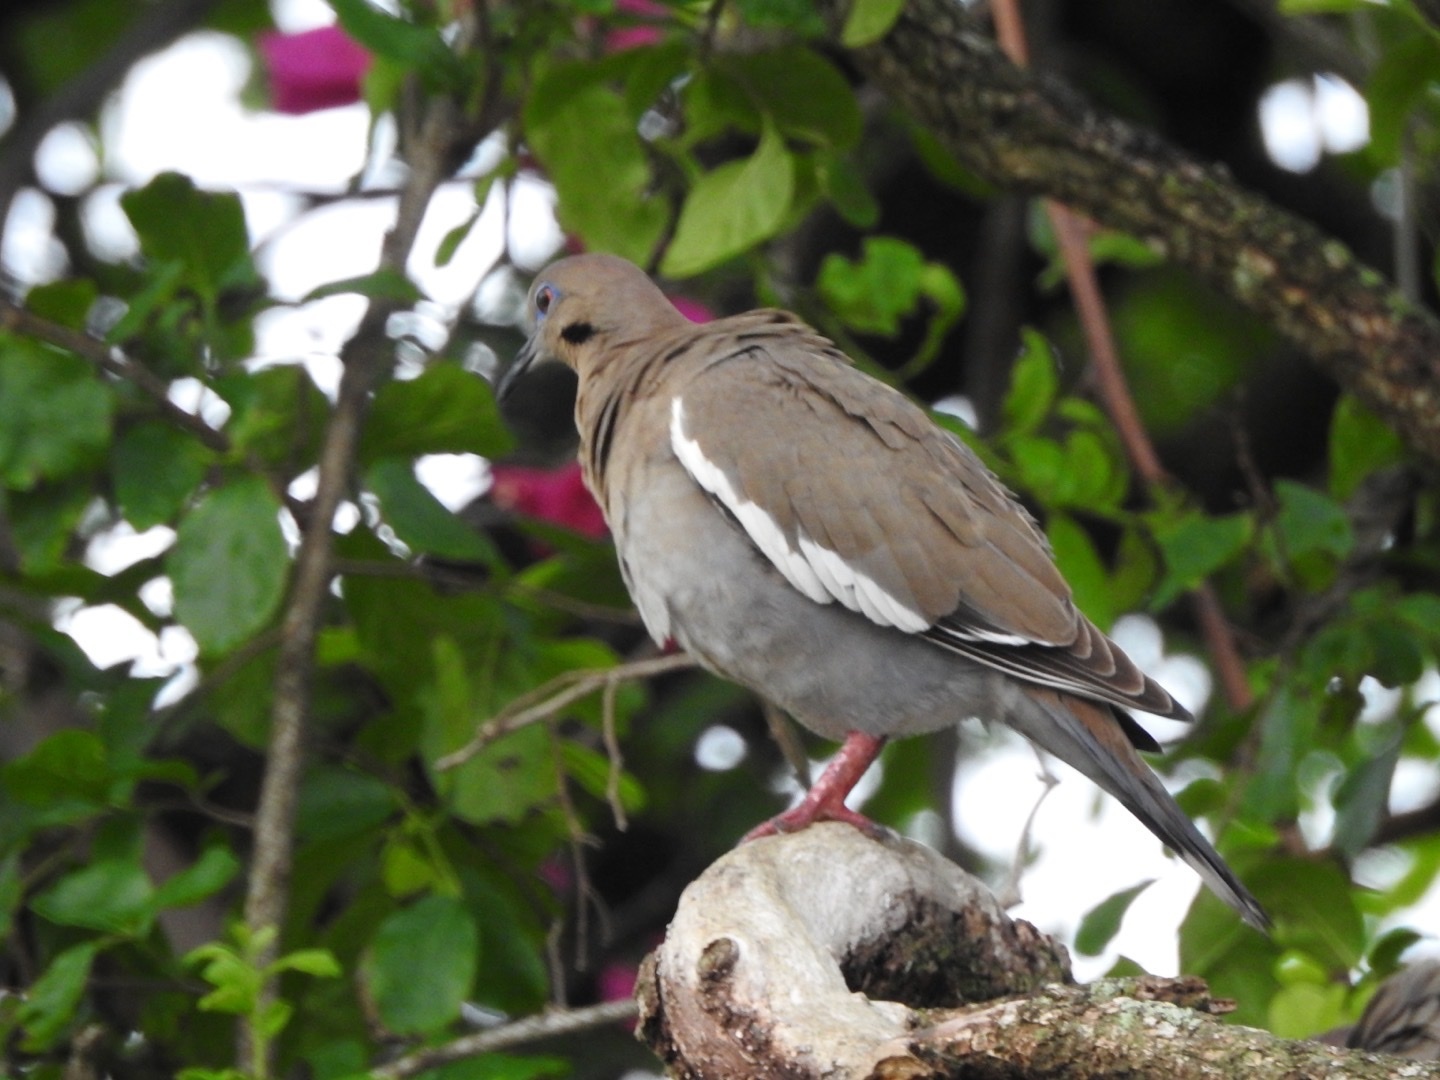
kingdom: Animalia
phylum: Chordata
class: Aves
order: Columbiformes
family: Columbidae
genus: Zenaida
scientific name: Zenaida asiatica
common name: White-winged dove
